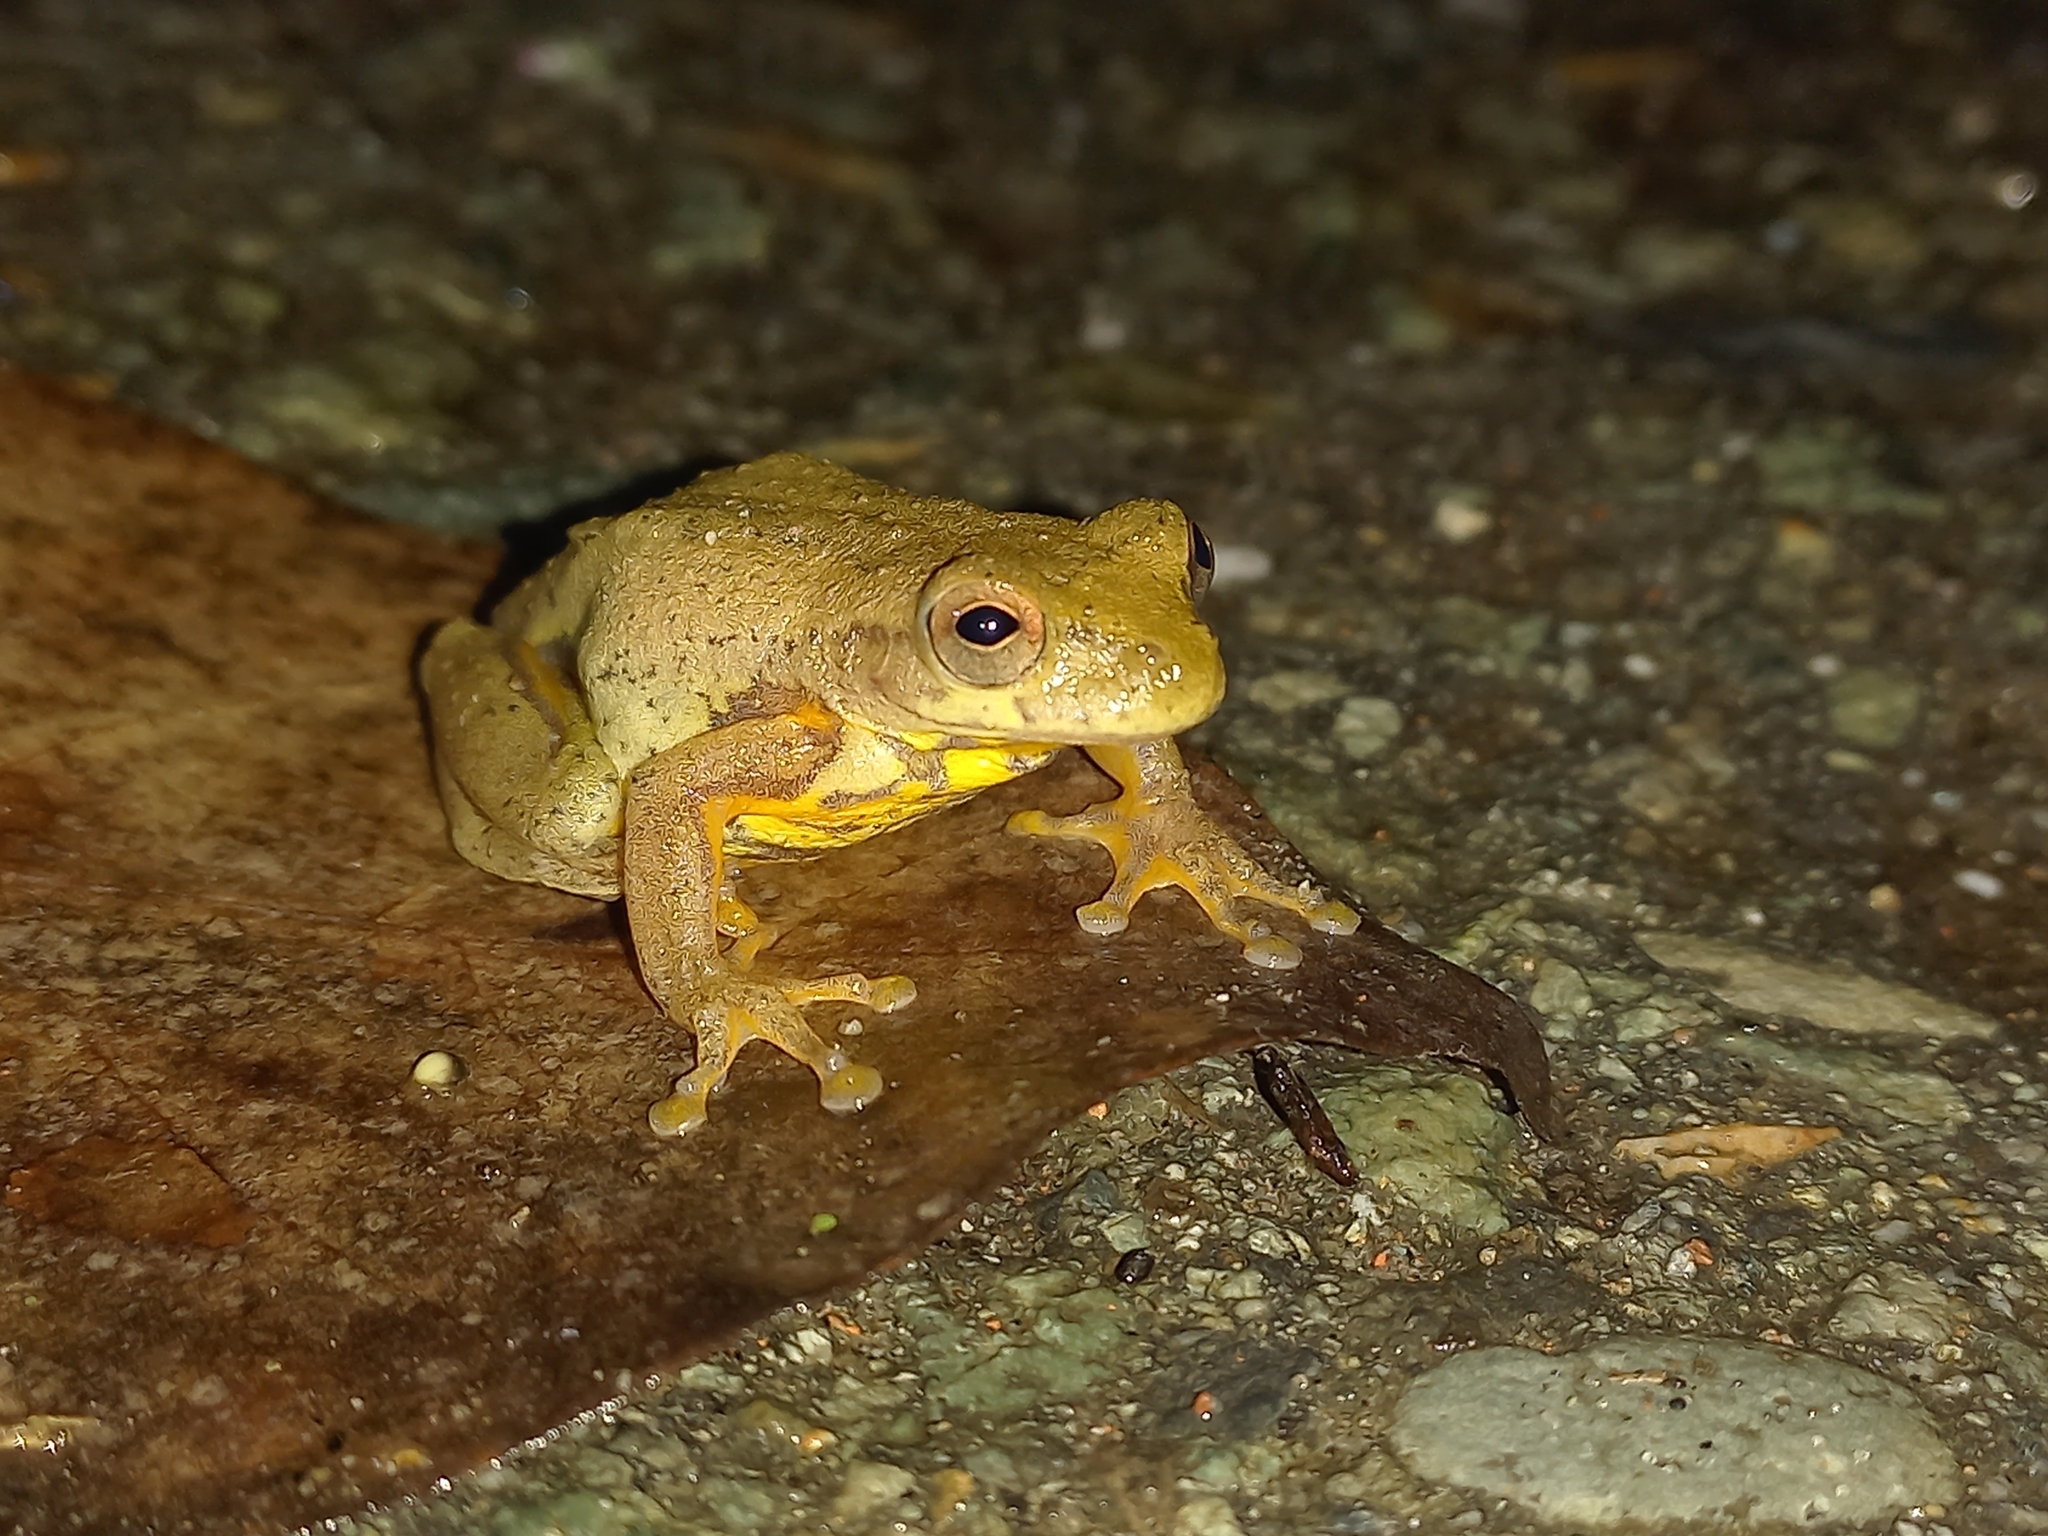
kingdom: Animalia
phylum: Chordata
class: Amphibia
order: Anura
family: Hylidae
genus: Dendropsophus
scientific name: Dendropsophus columbianus
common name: Boettger's colombian treefrog
